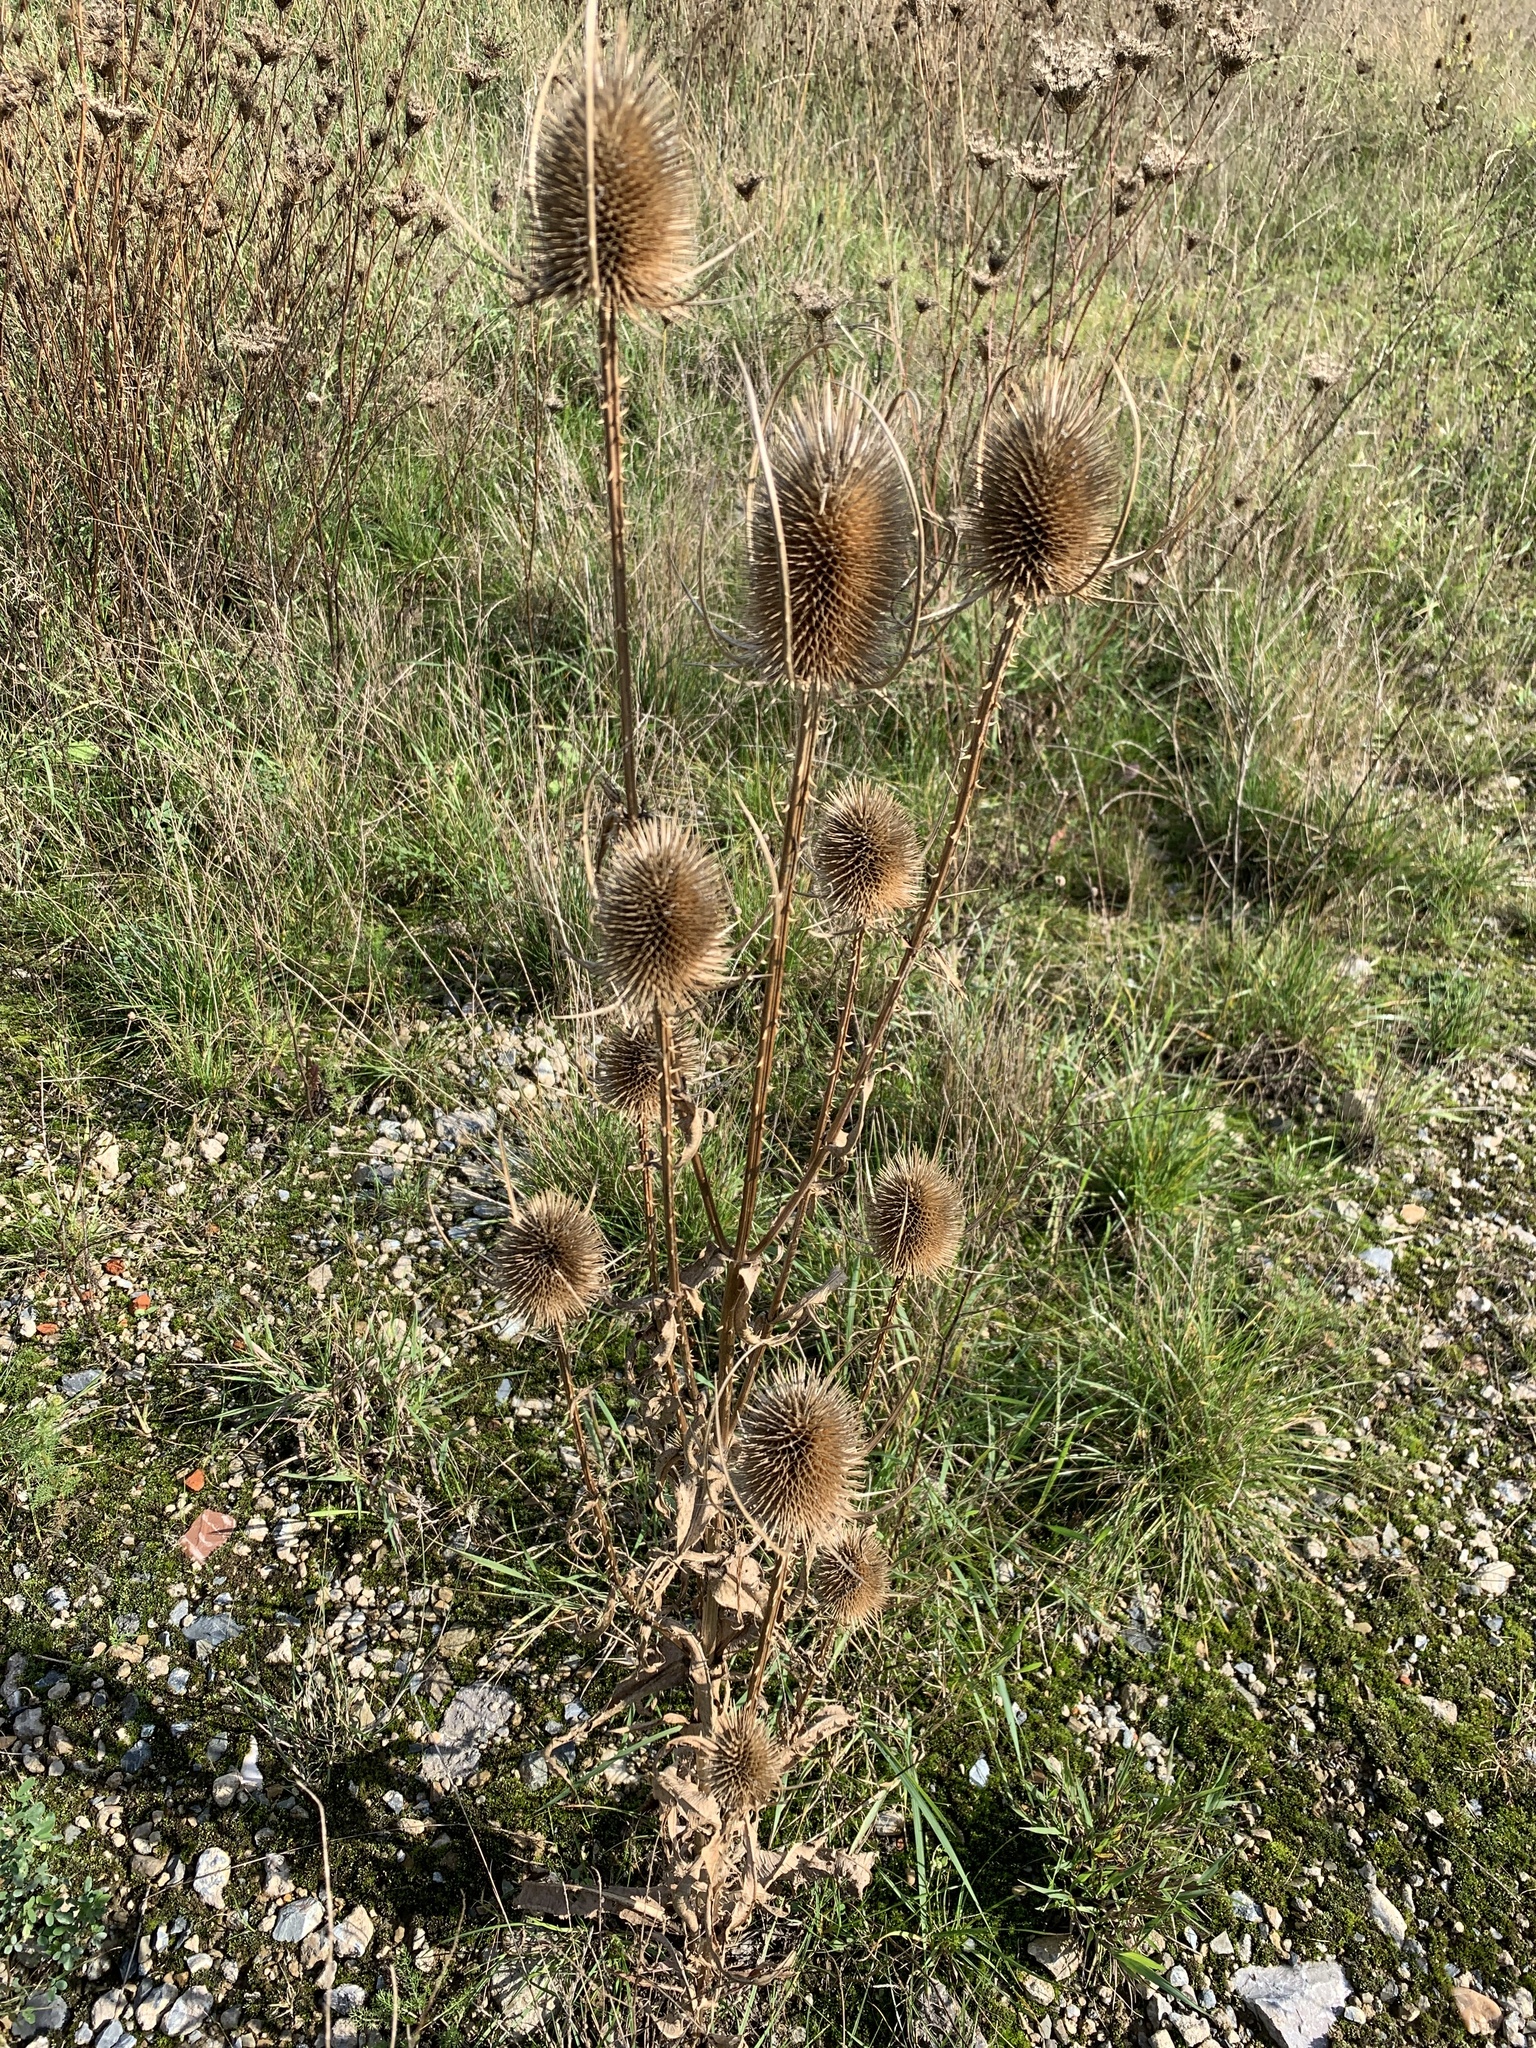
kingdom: Plantae
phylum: Tracheophyta
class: Magnoliopsida
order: Dipsacales
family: Caprifoliaceae
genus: Dipsacus
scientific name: Dipsacus fullonum
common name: Teasel
